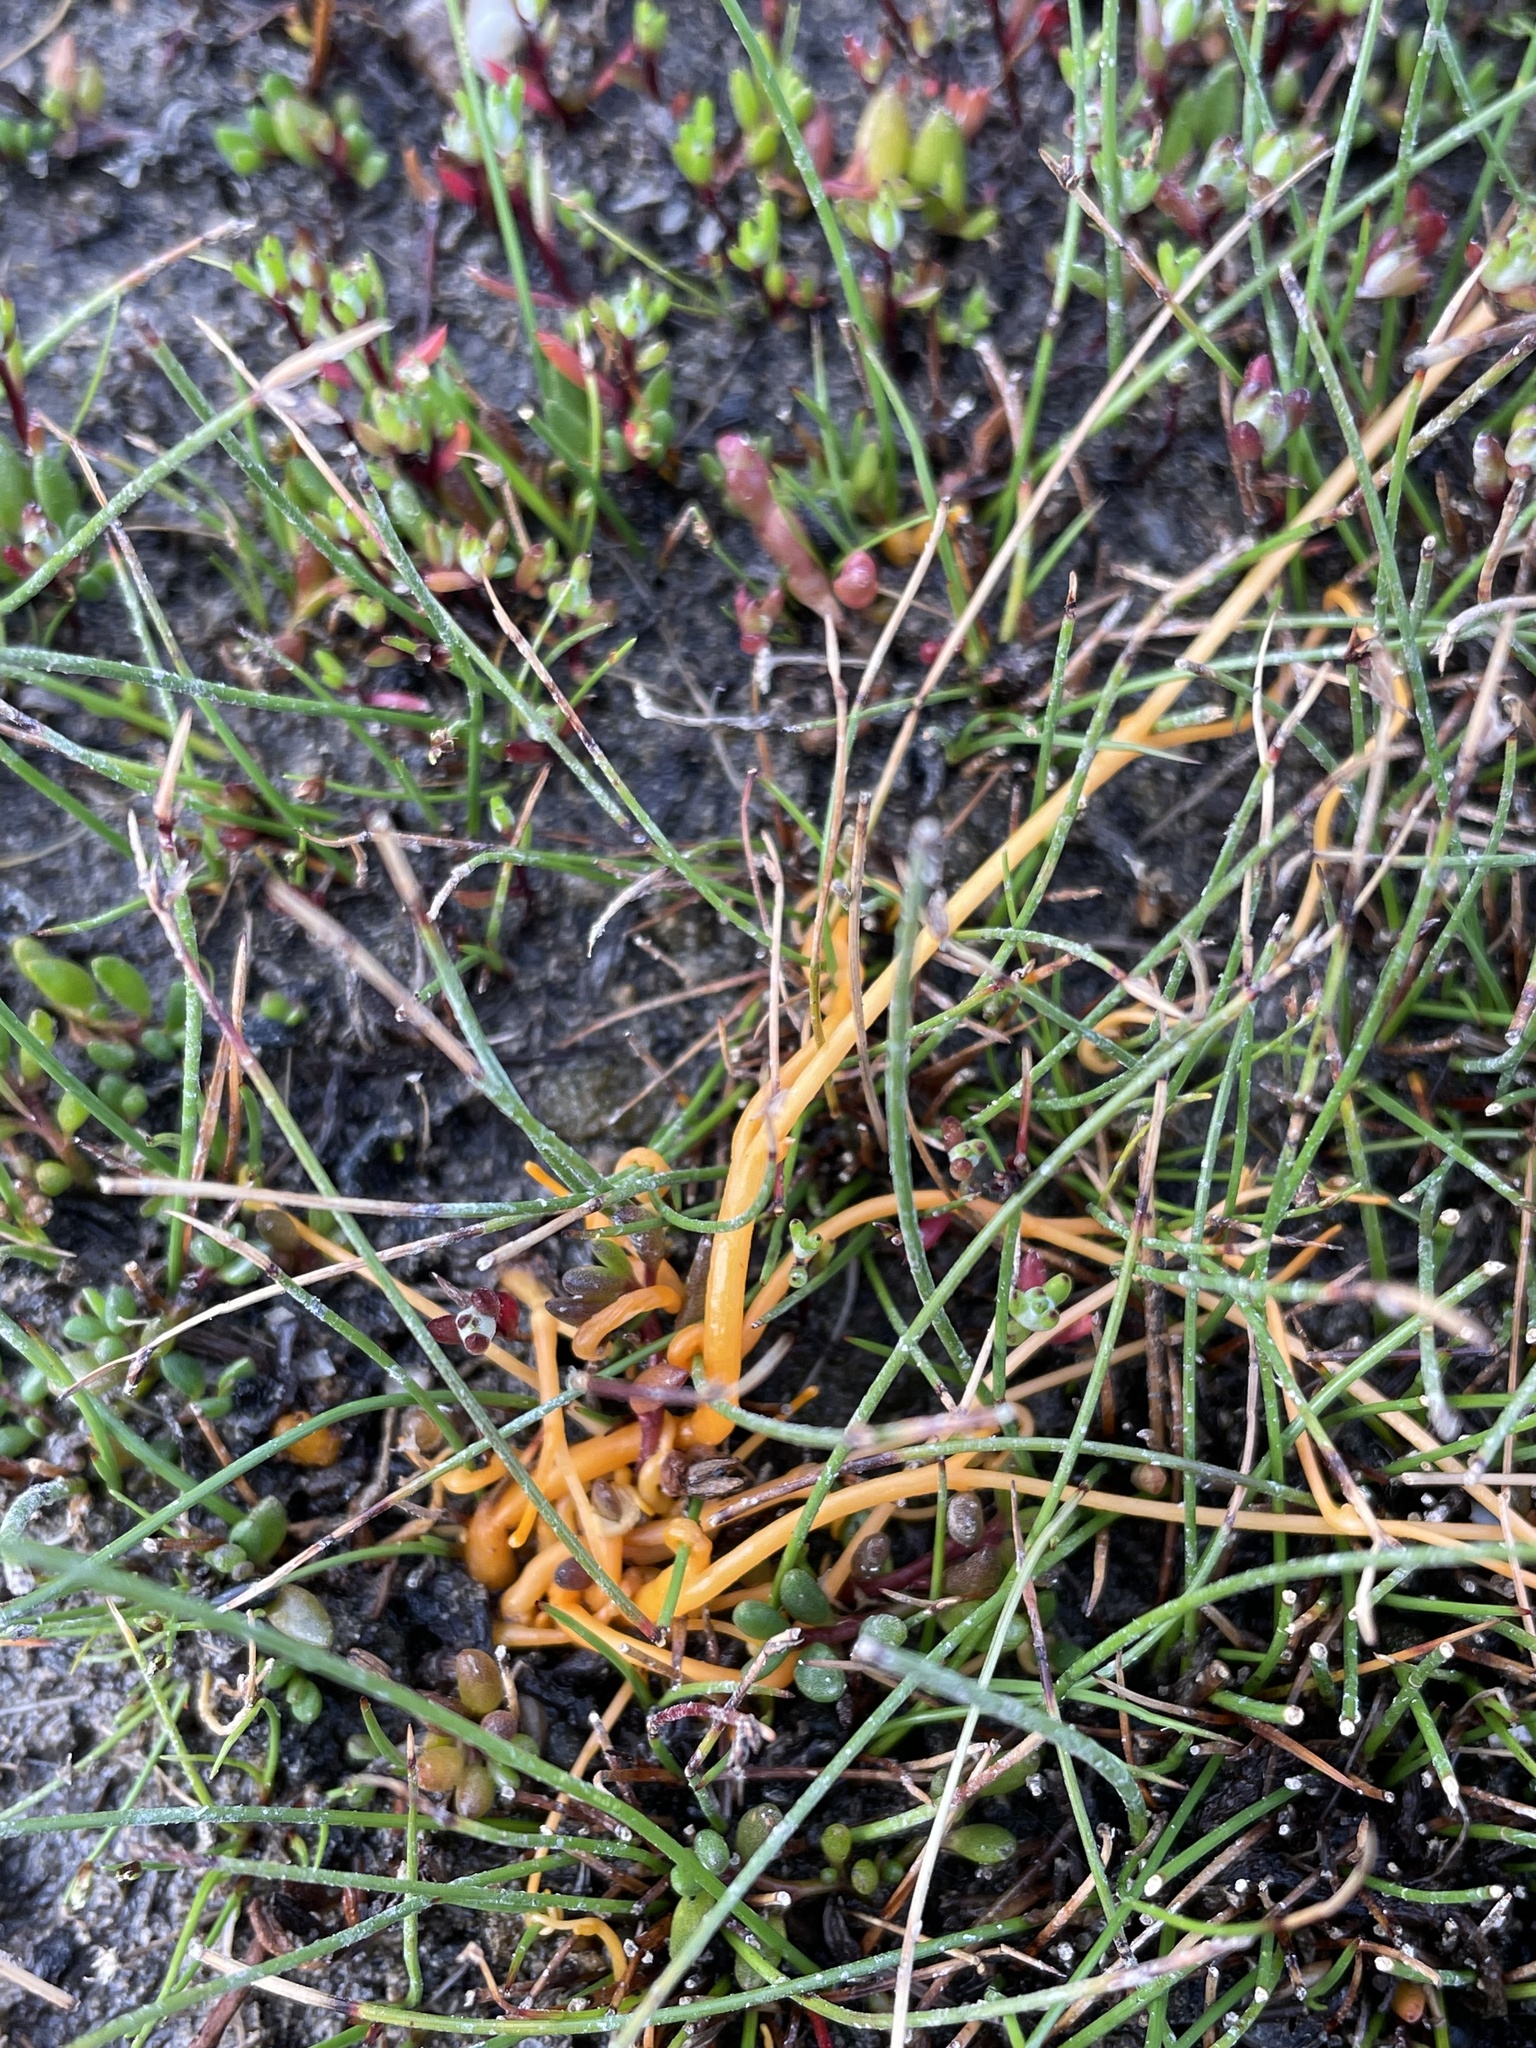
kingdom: Plantae
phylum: Tracheophyta
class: Magnoliopsida
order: Solanales
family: Convolvulaceae
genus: Cuscuta
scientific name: Cuscuta tasmanica
